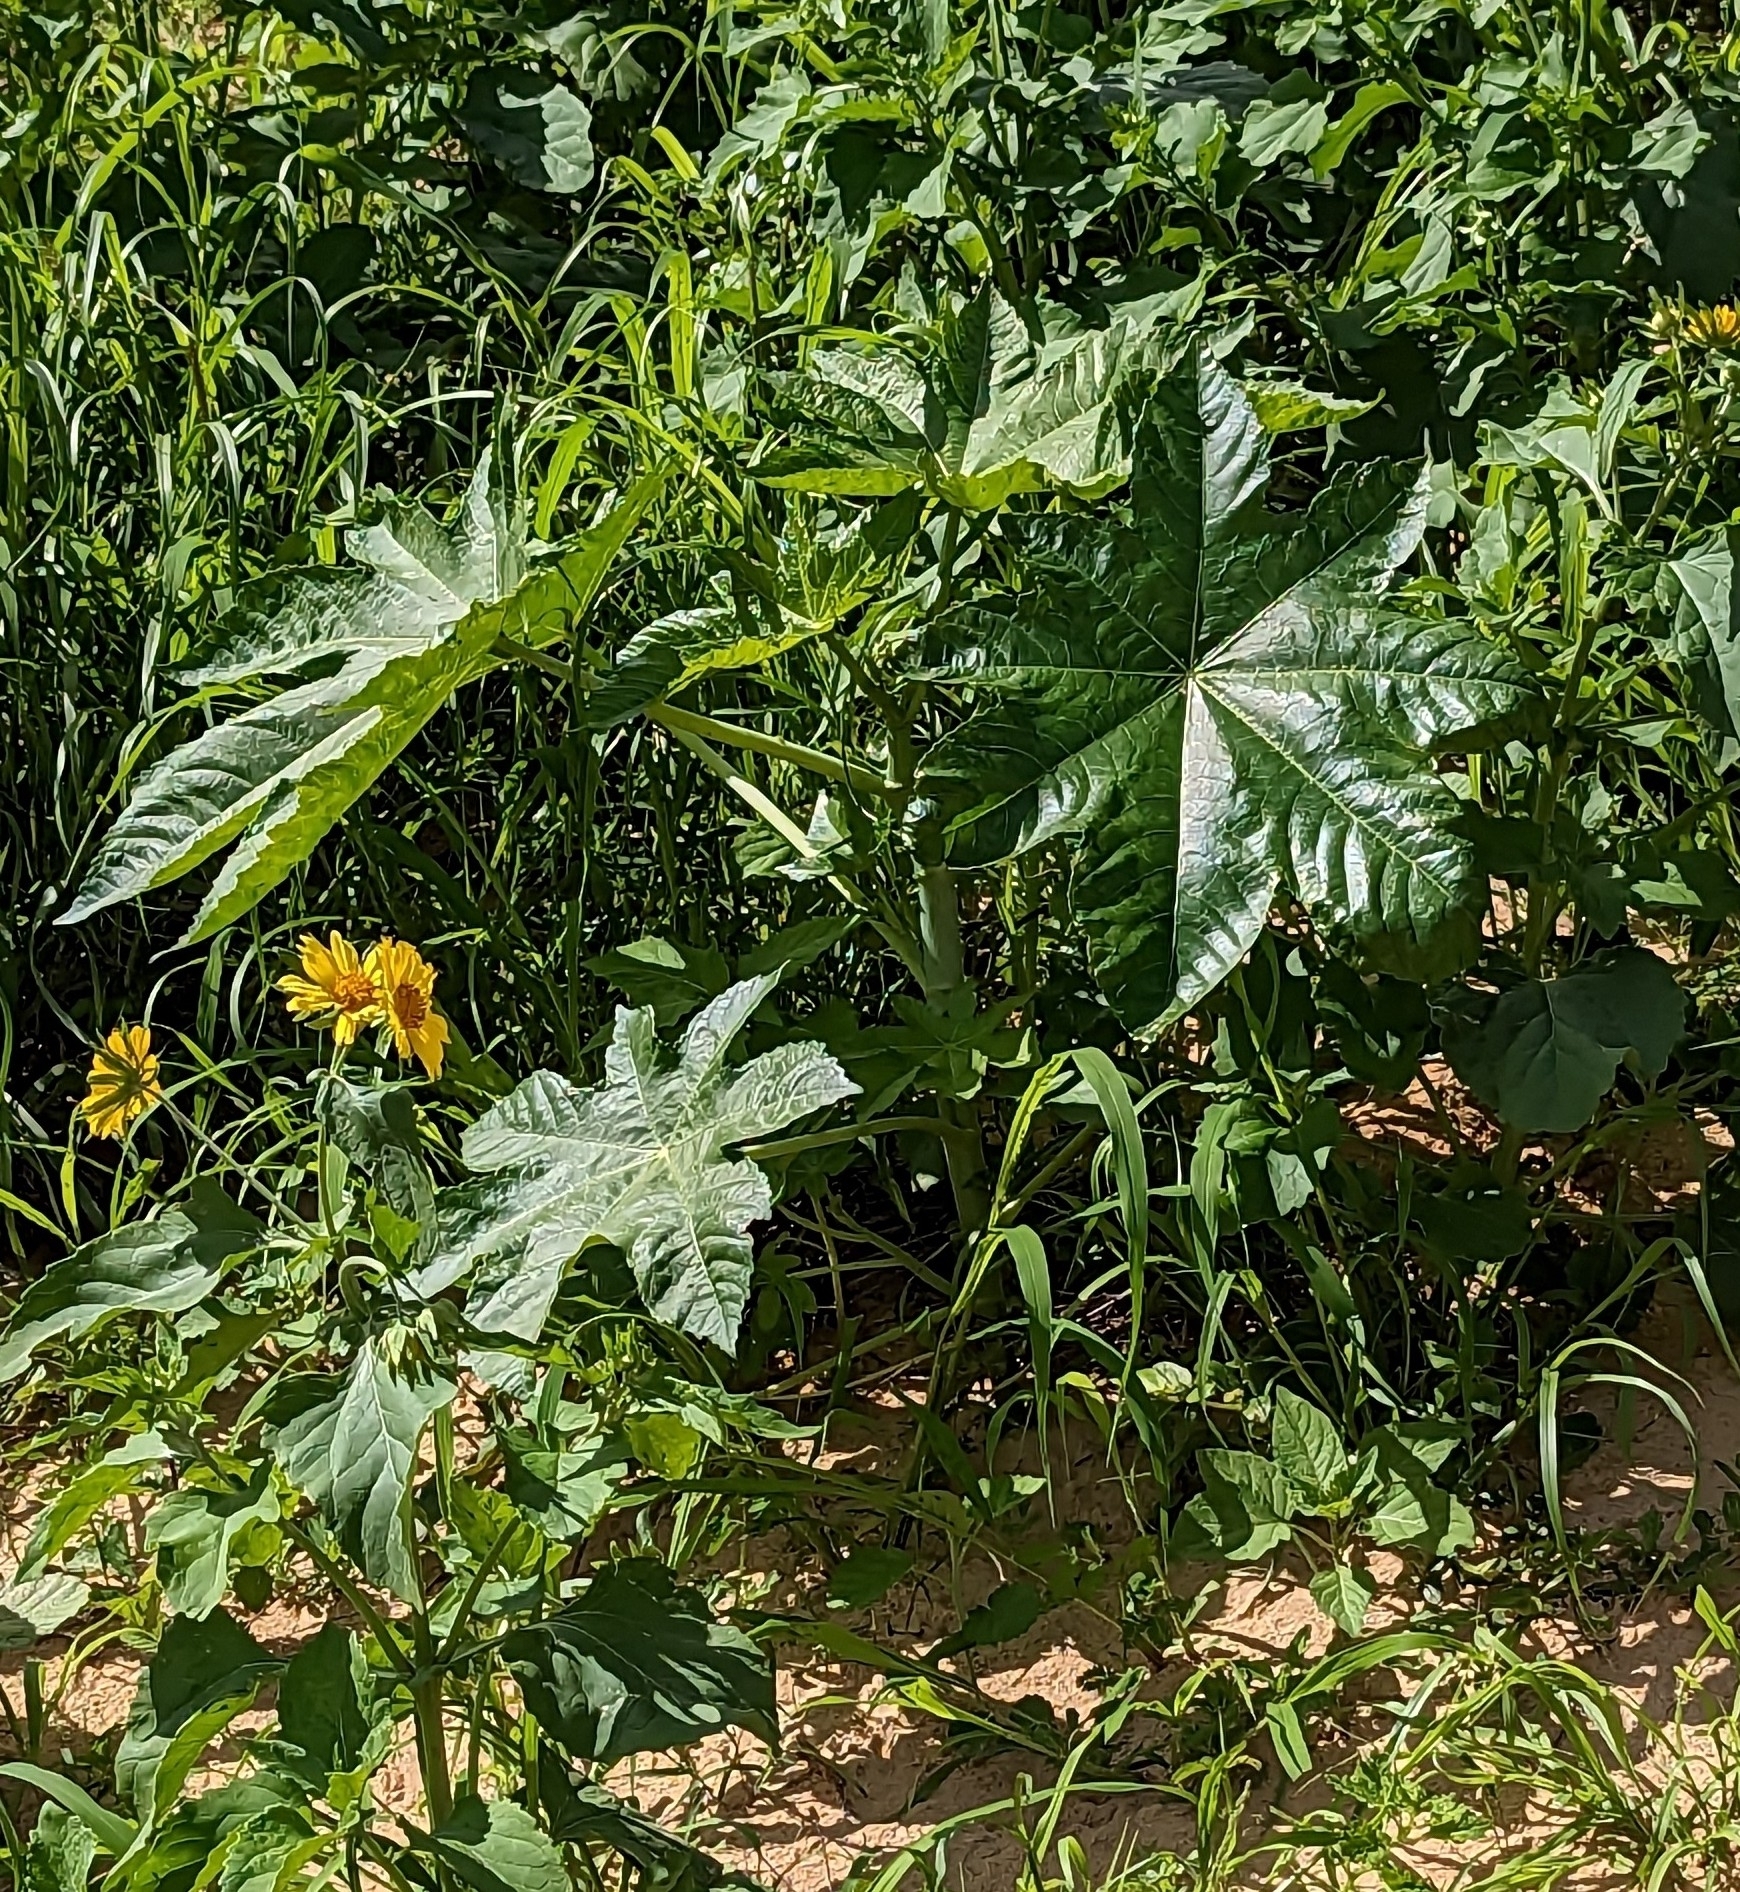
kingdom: Plantae
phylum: Tracheophyta
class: Magnoliopsida
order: Malpighiales
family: Euphorbiaceae
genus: Ricinus
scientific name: Ricinus communis
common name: Castor-oil-plant
